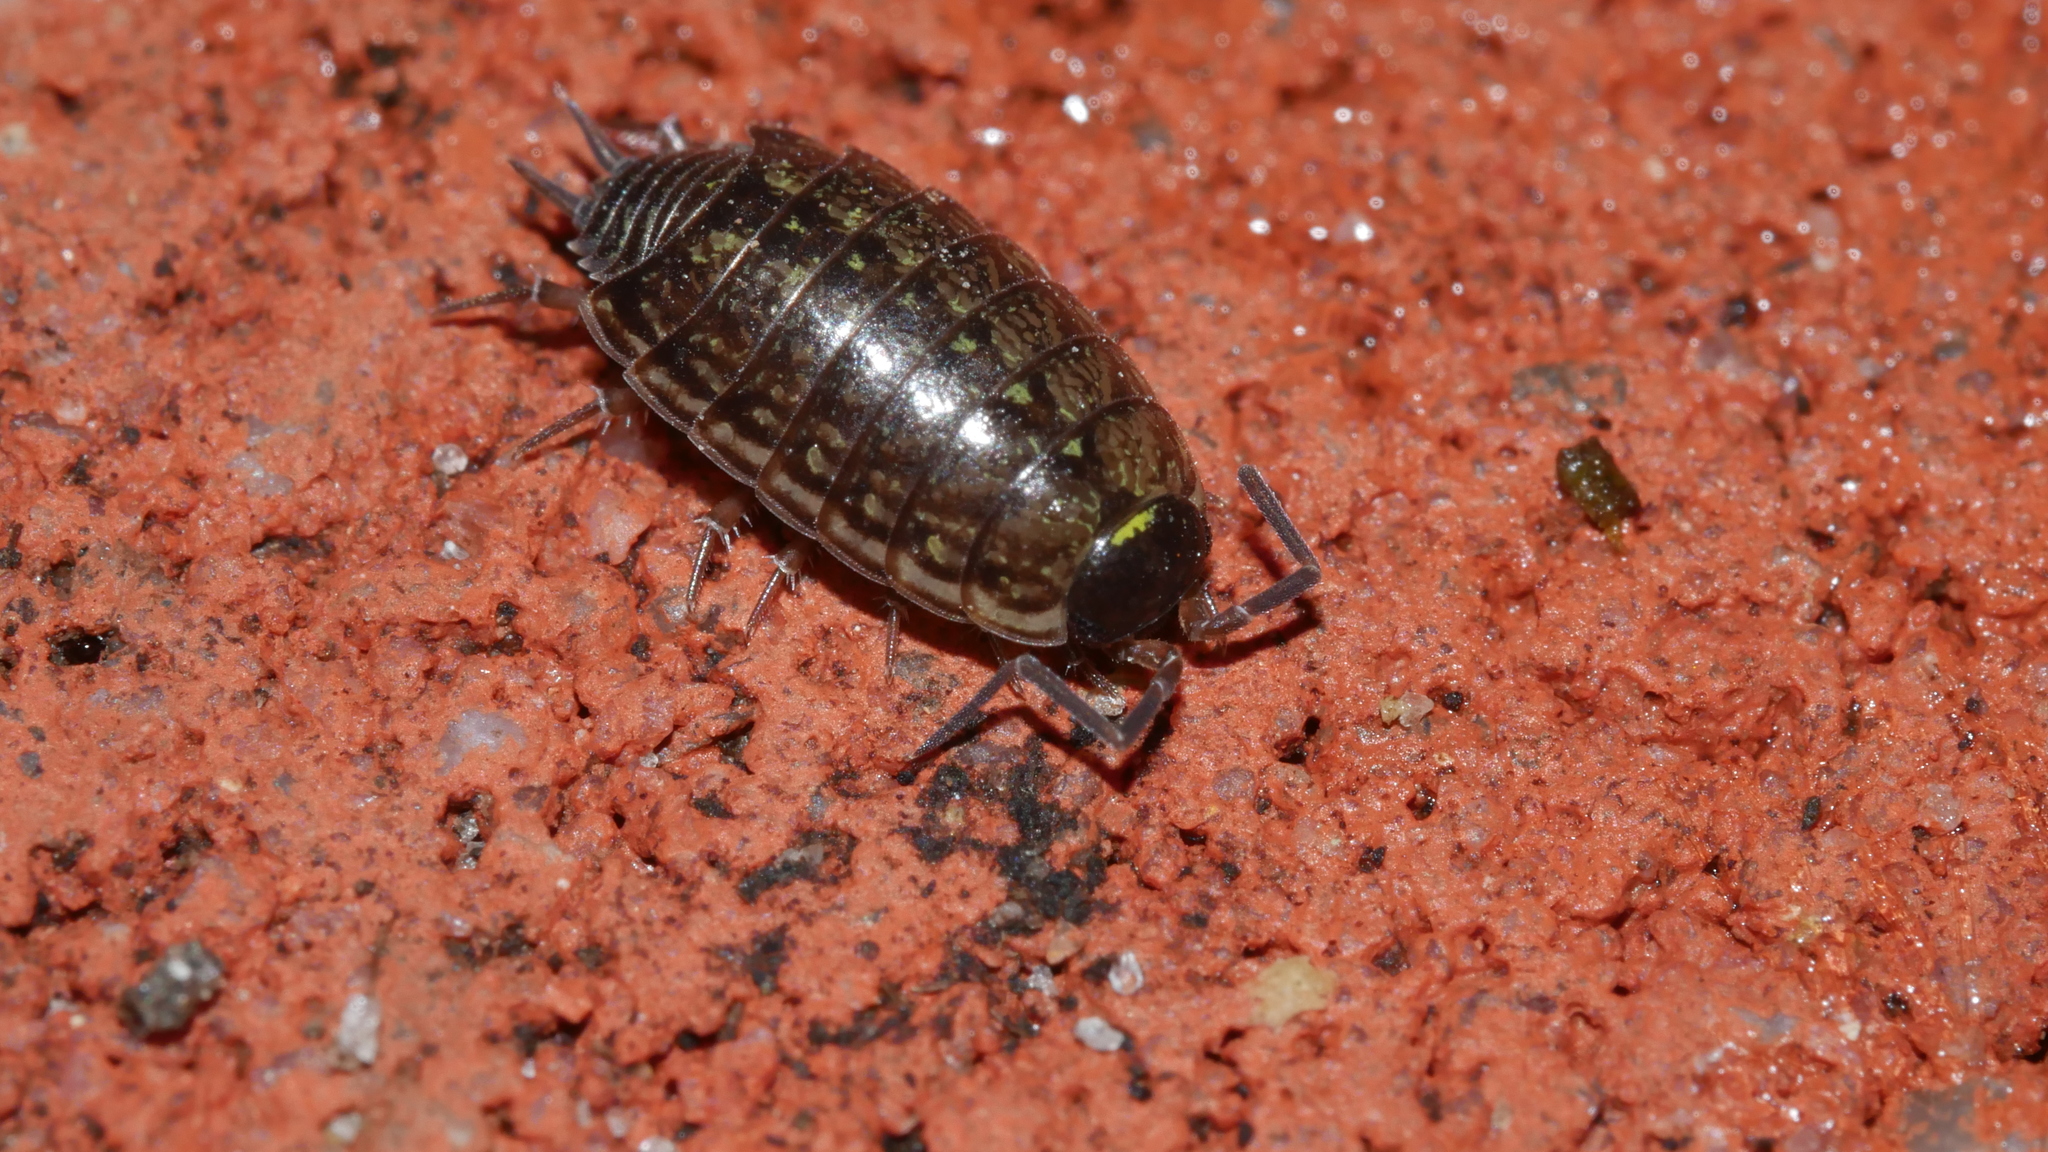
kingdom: Animalia
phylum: Arthropoda
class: Malacostraca
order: Isopoda
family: Philosciidae
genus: Philoscia
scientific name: Philoscia muscorum
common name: Common striped woodlouse
